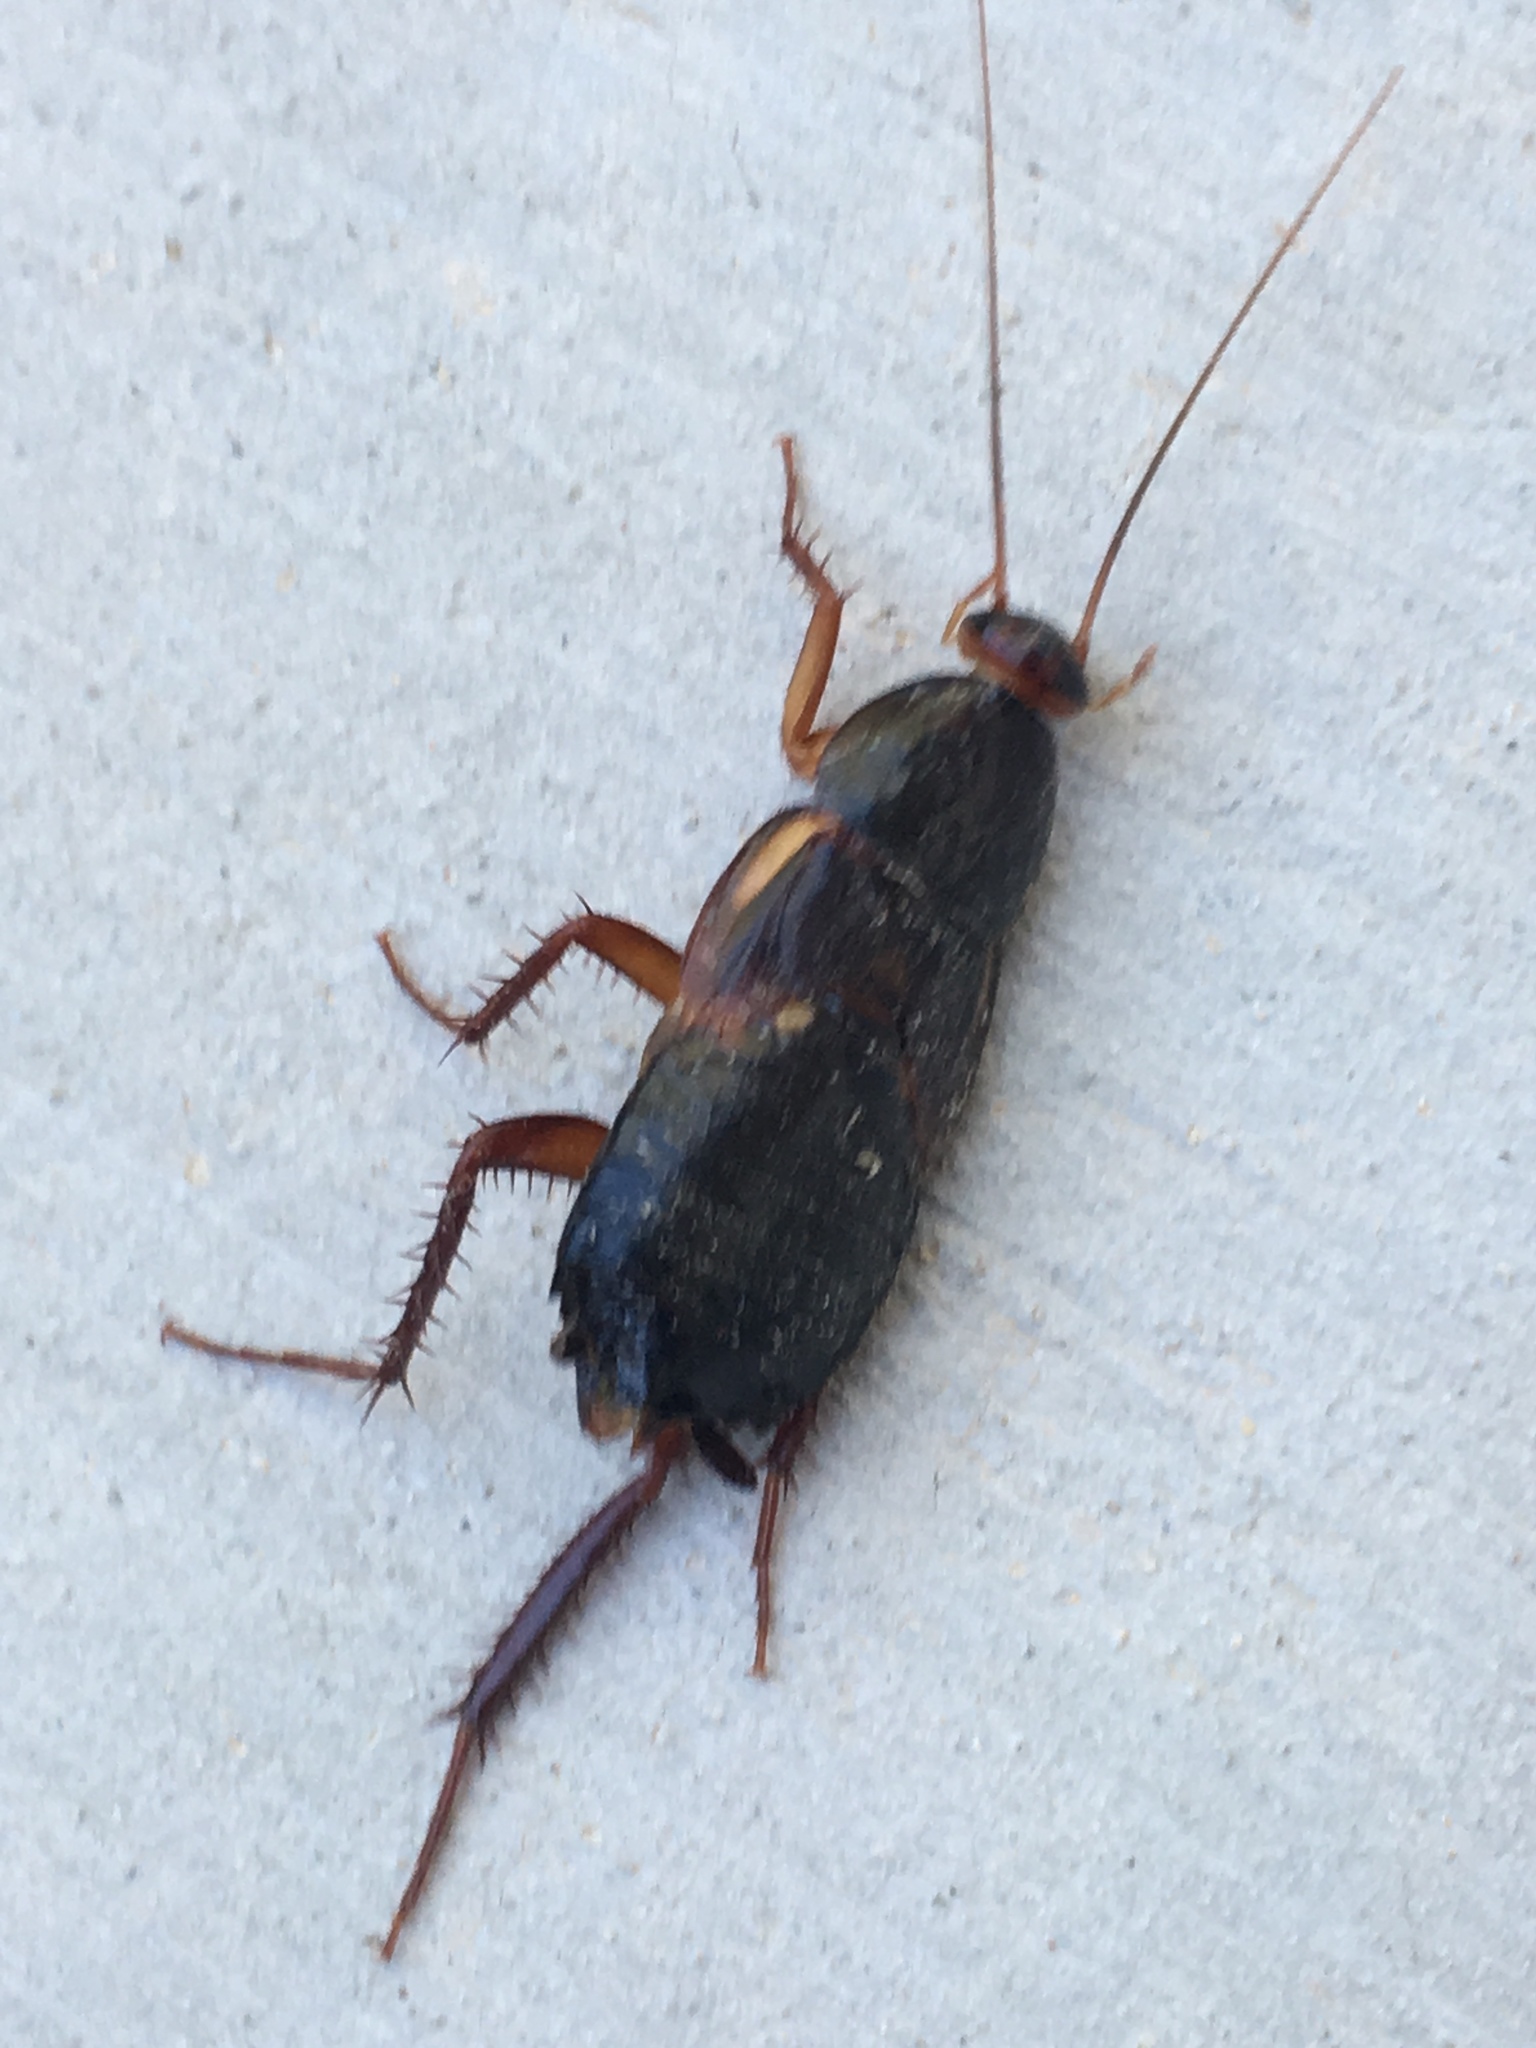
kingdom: Animalia
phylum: Arthropoda
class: Insecta
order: Blattodea
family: Blattidae
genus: Periplaneta
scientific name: Periplaneta lateralis
